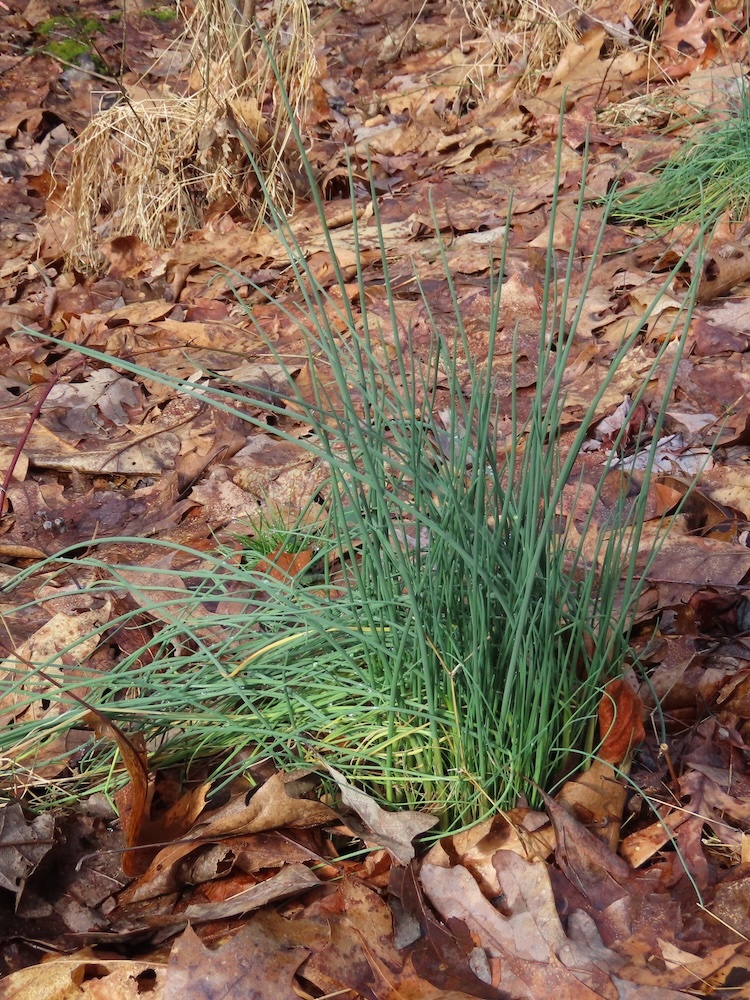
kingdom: Plantae
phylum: Tracheophyta
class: Liliopsida
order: Asparagales
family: Amaryllidaceae
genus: Allium
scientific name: Allium vineale
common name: Crow garlic
